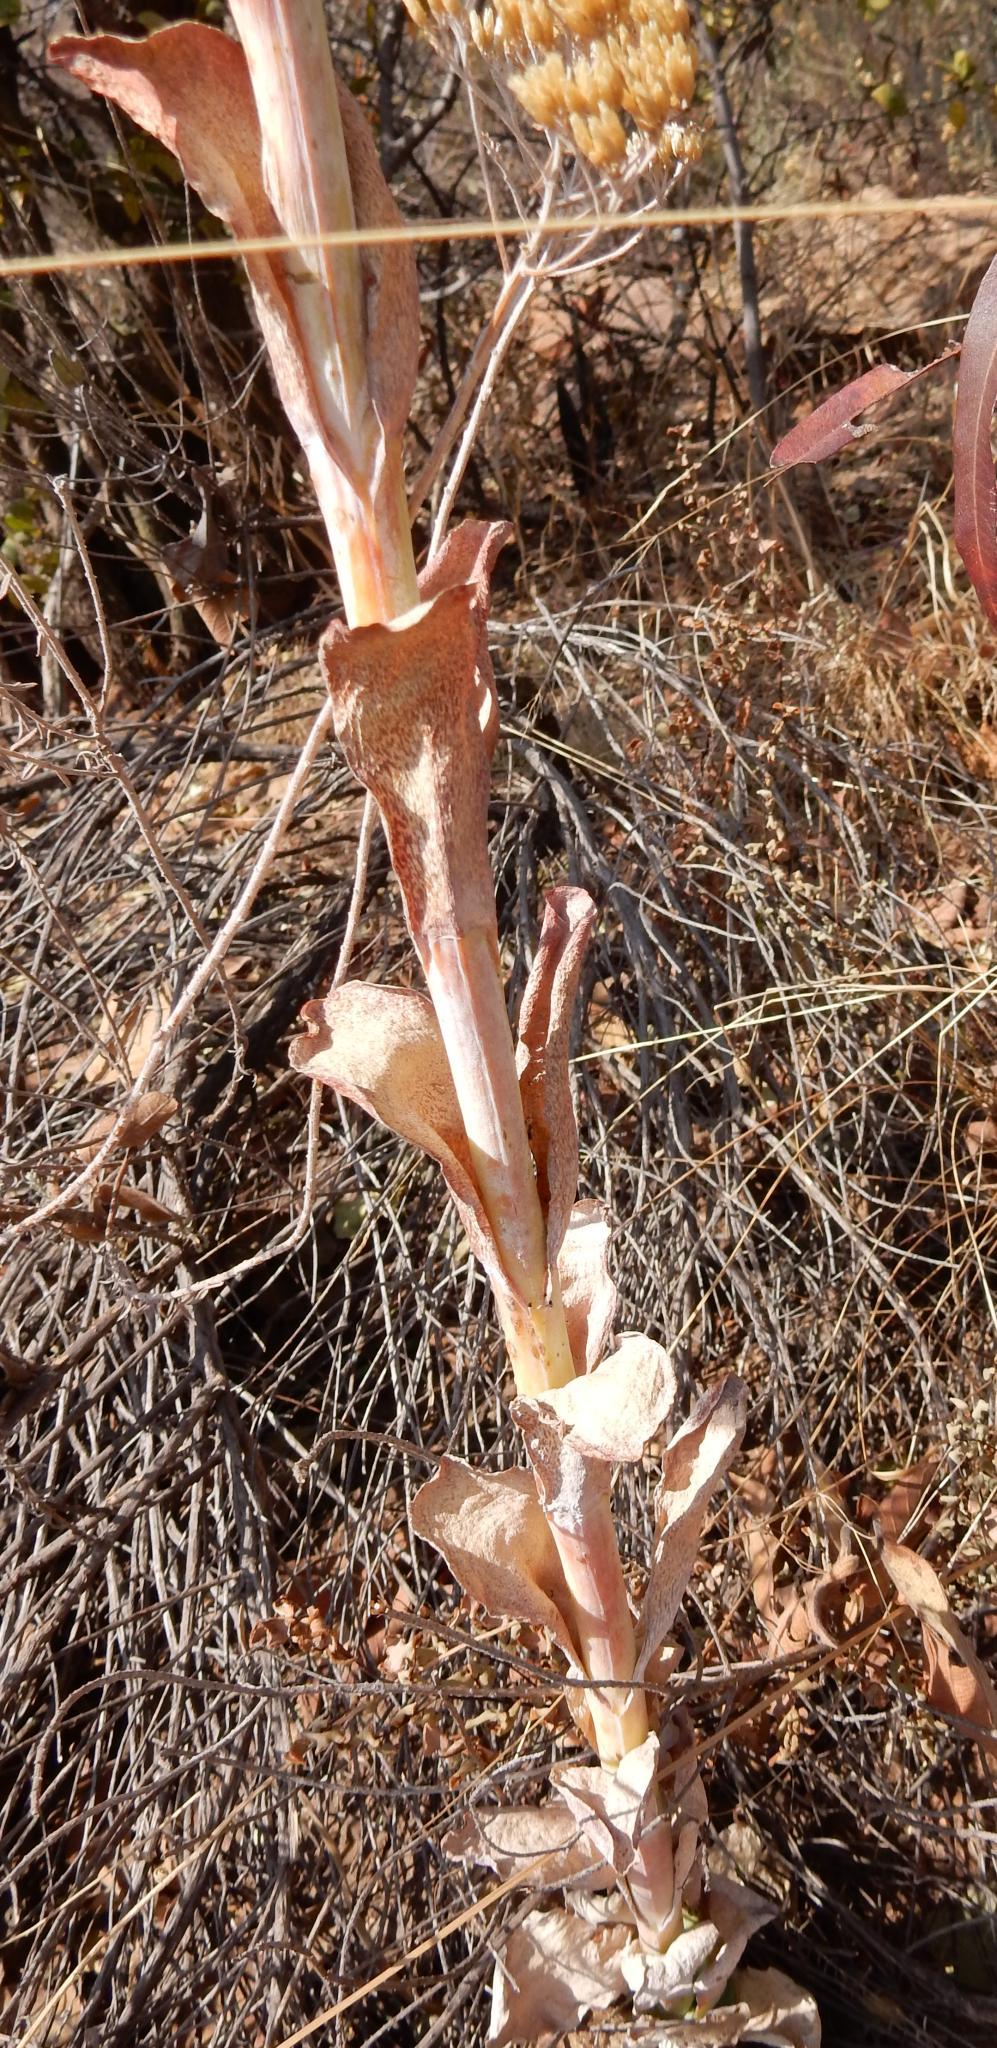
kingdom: Plantae
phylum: Tracheophyta
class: Magnoliopsida
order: Saxifragales
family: Crassulaceae
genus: Kalanchoe
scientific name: Kalanchoe thyrsiflora
